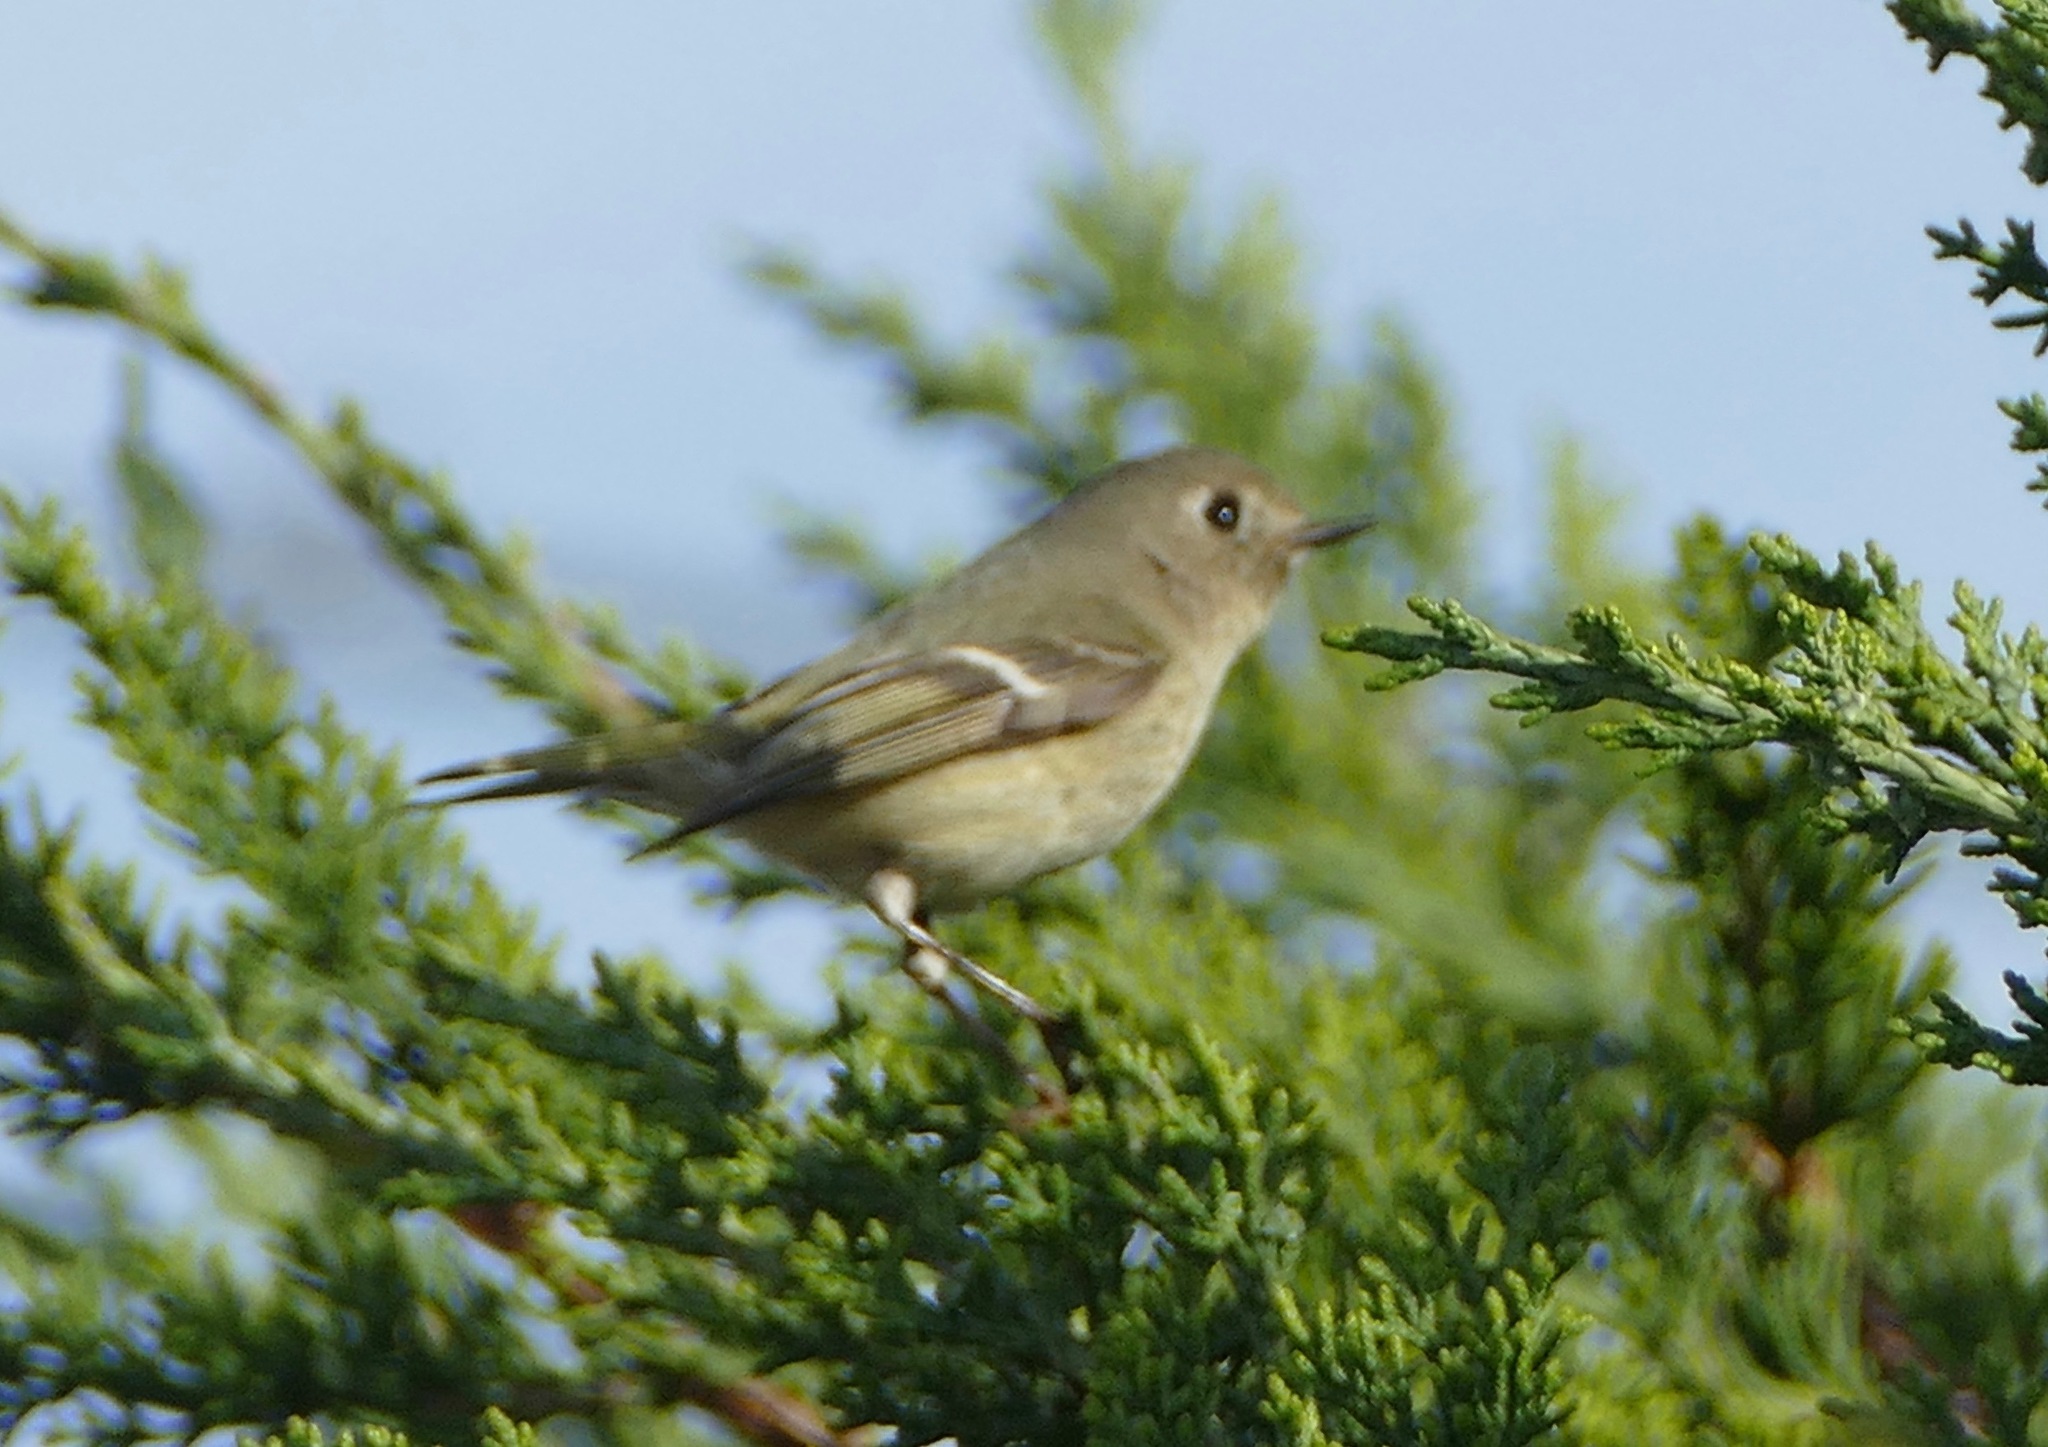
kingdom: Animalia
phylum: Chordata
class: Aves
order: Passeriformes
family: Regulidae
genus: Regulus
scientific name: Regulus calendula
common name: Ruby-crowned kinglet
